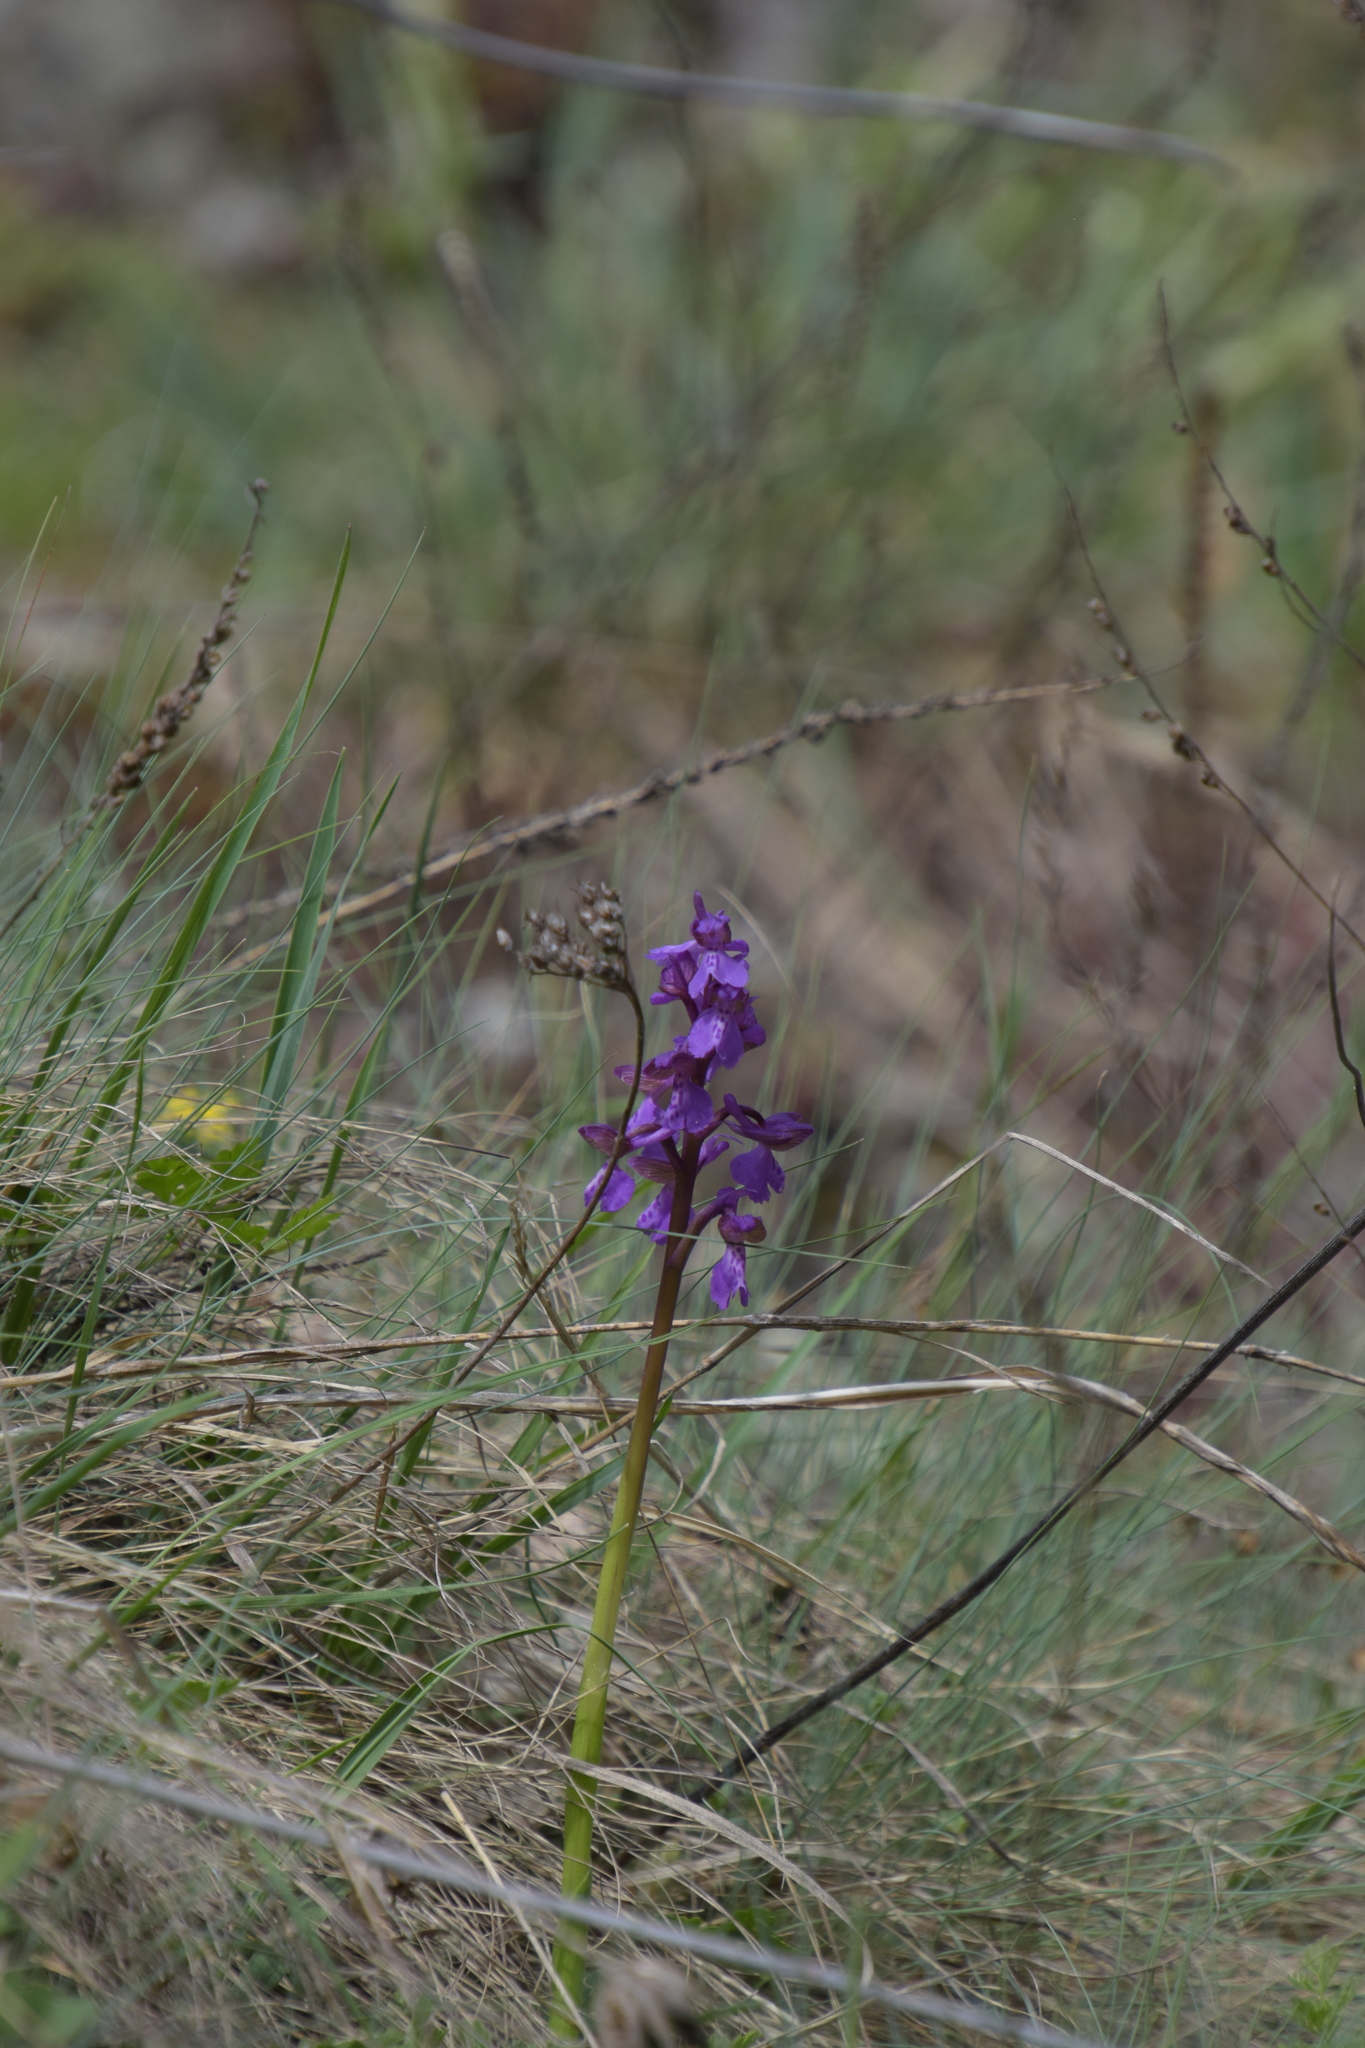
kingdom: Plantae
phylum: Tracheophyta
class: Liliopsida
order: Asparagales
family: Orchidaceae
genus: Anacamptis
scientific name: Anacamptis morio
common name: Green-winged orchid
